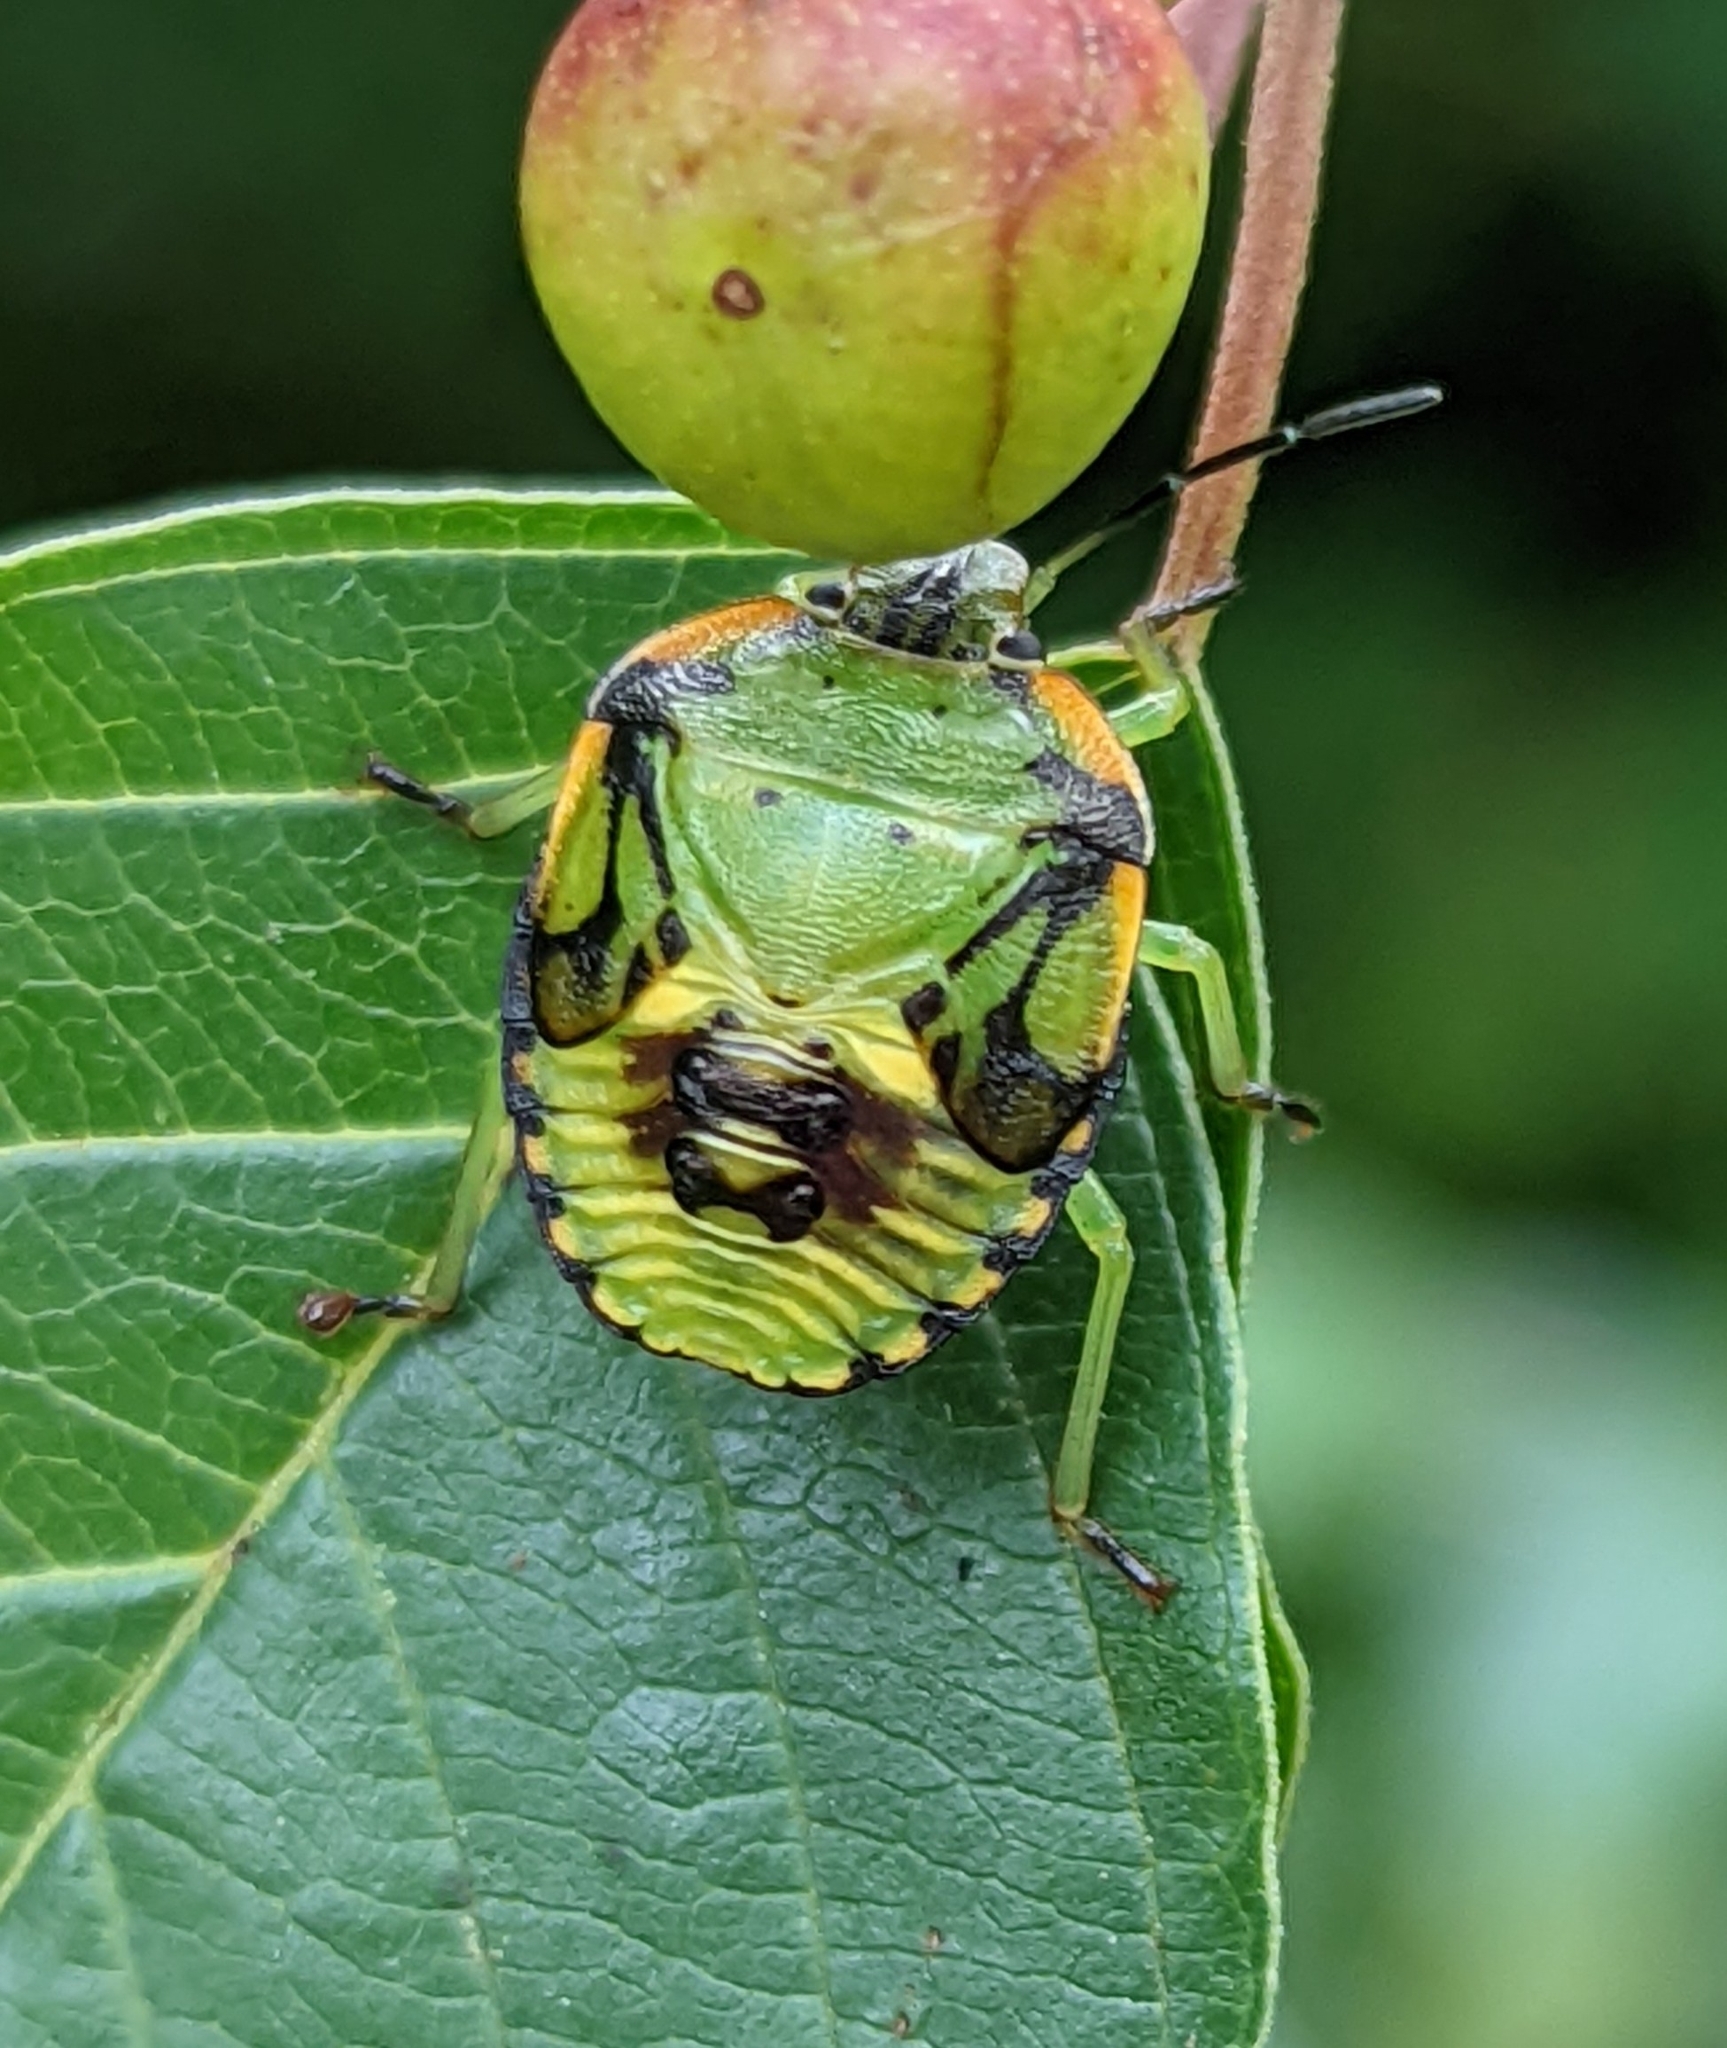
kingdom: Animalia
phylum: Arthropoda
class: Insecta
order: Hemiptera
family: Pentatomidae
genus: Chinavia
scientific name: Chinavia hilaris
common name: Green stink bug
